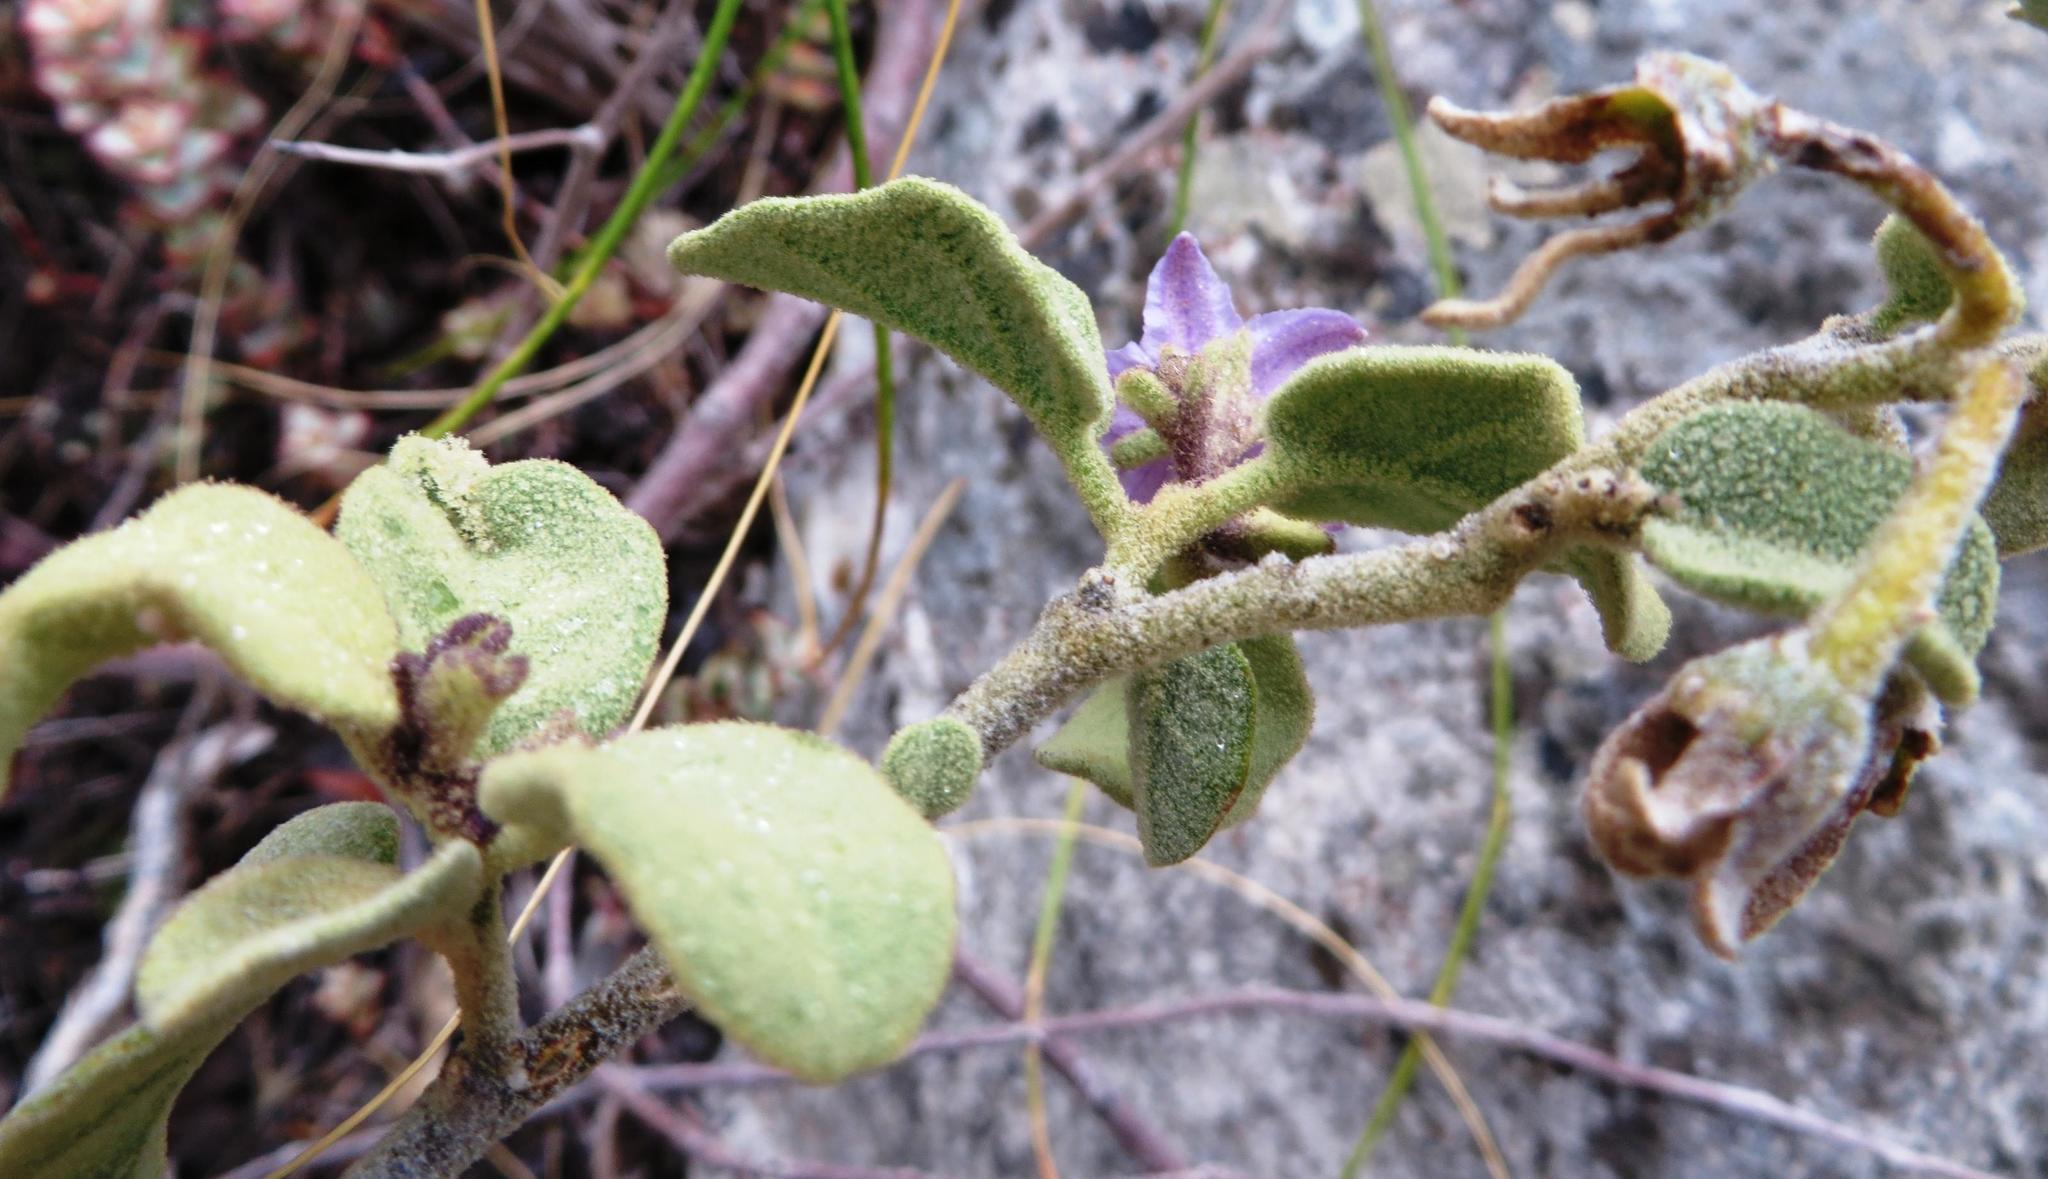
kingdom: Plantae
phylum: Tracheophyta
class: Magnoliopsida
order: Solanales
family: Solanaceae
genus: Solanum
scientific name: Solanum tomentosum
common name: Wild aubergine
